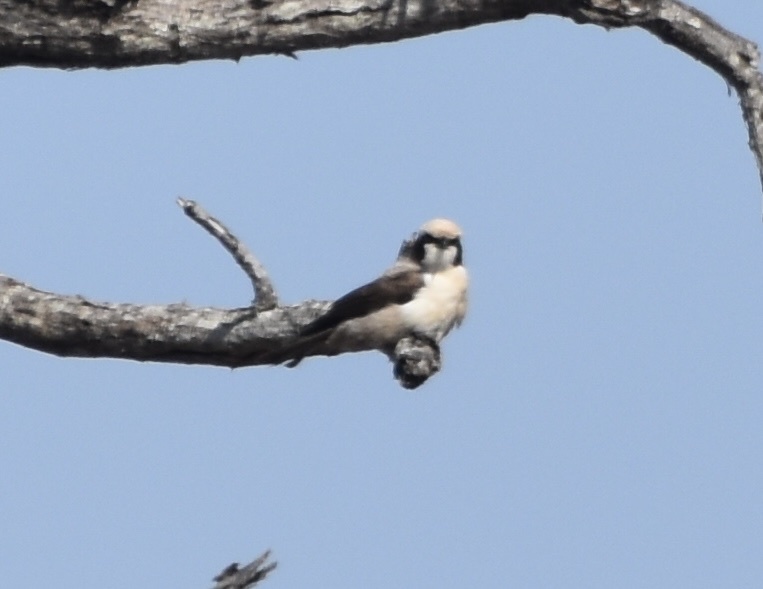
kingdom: Animalia
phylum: Chordata
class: Aves
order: Passeriformes
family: Laniidae
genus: Eurocephalus
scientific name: Eurocephalus anguitimens
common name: Southern white-crowned shrike
